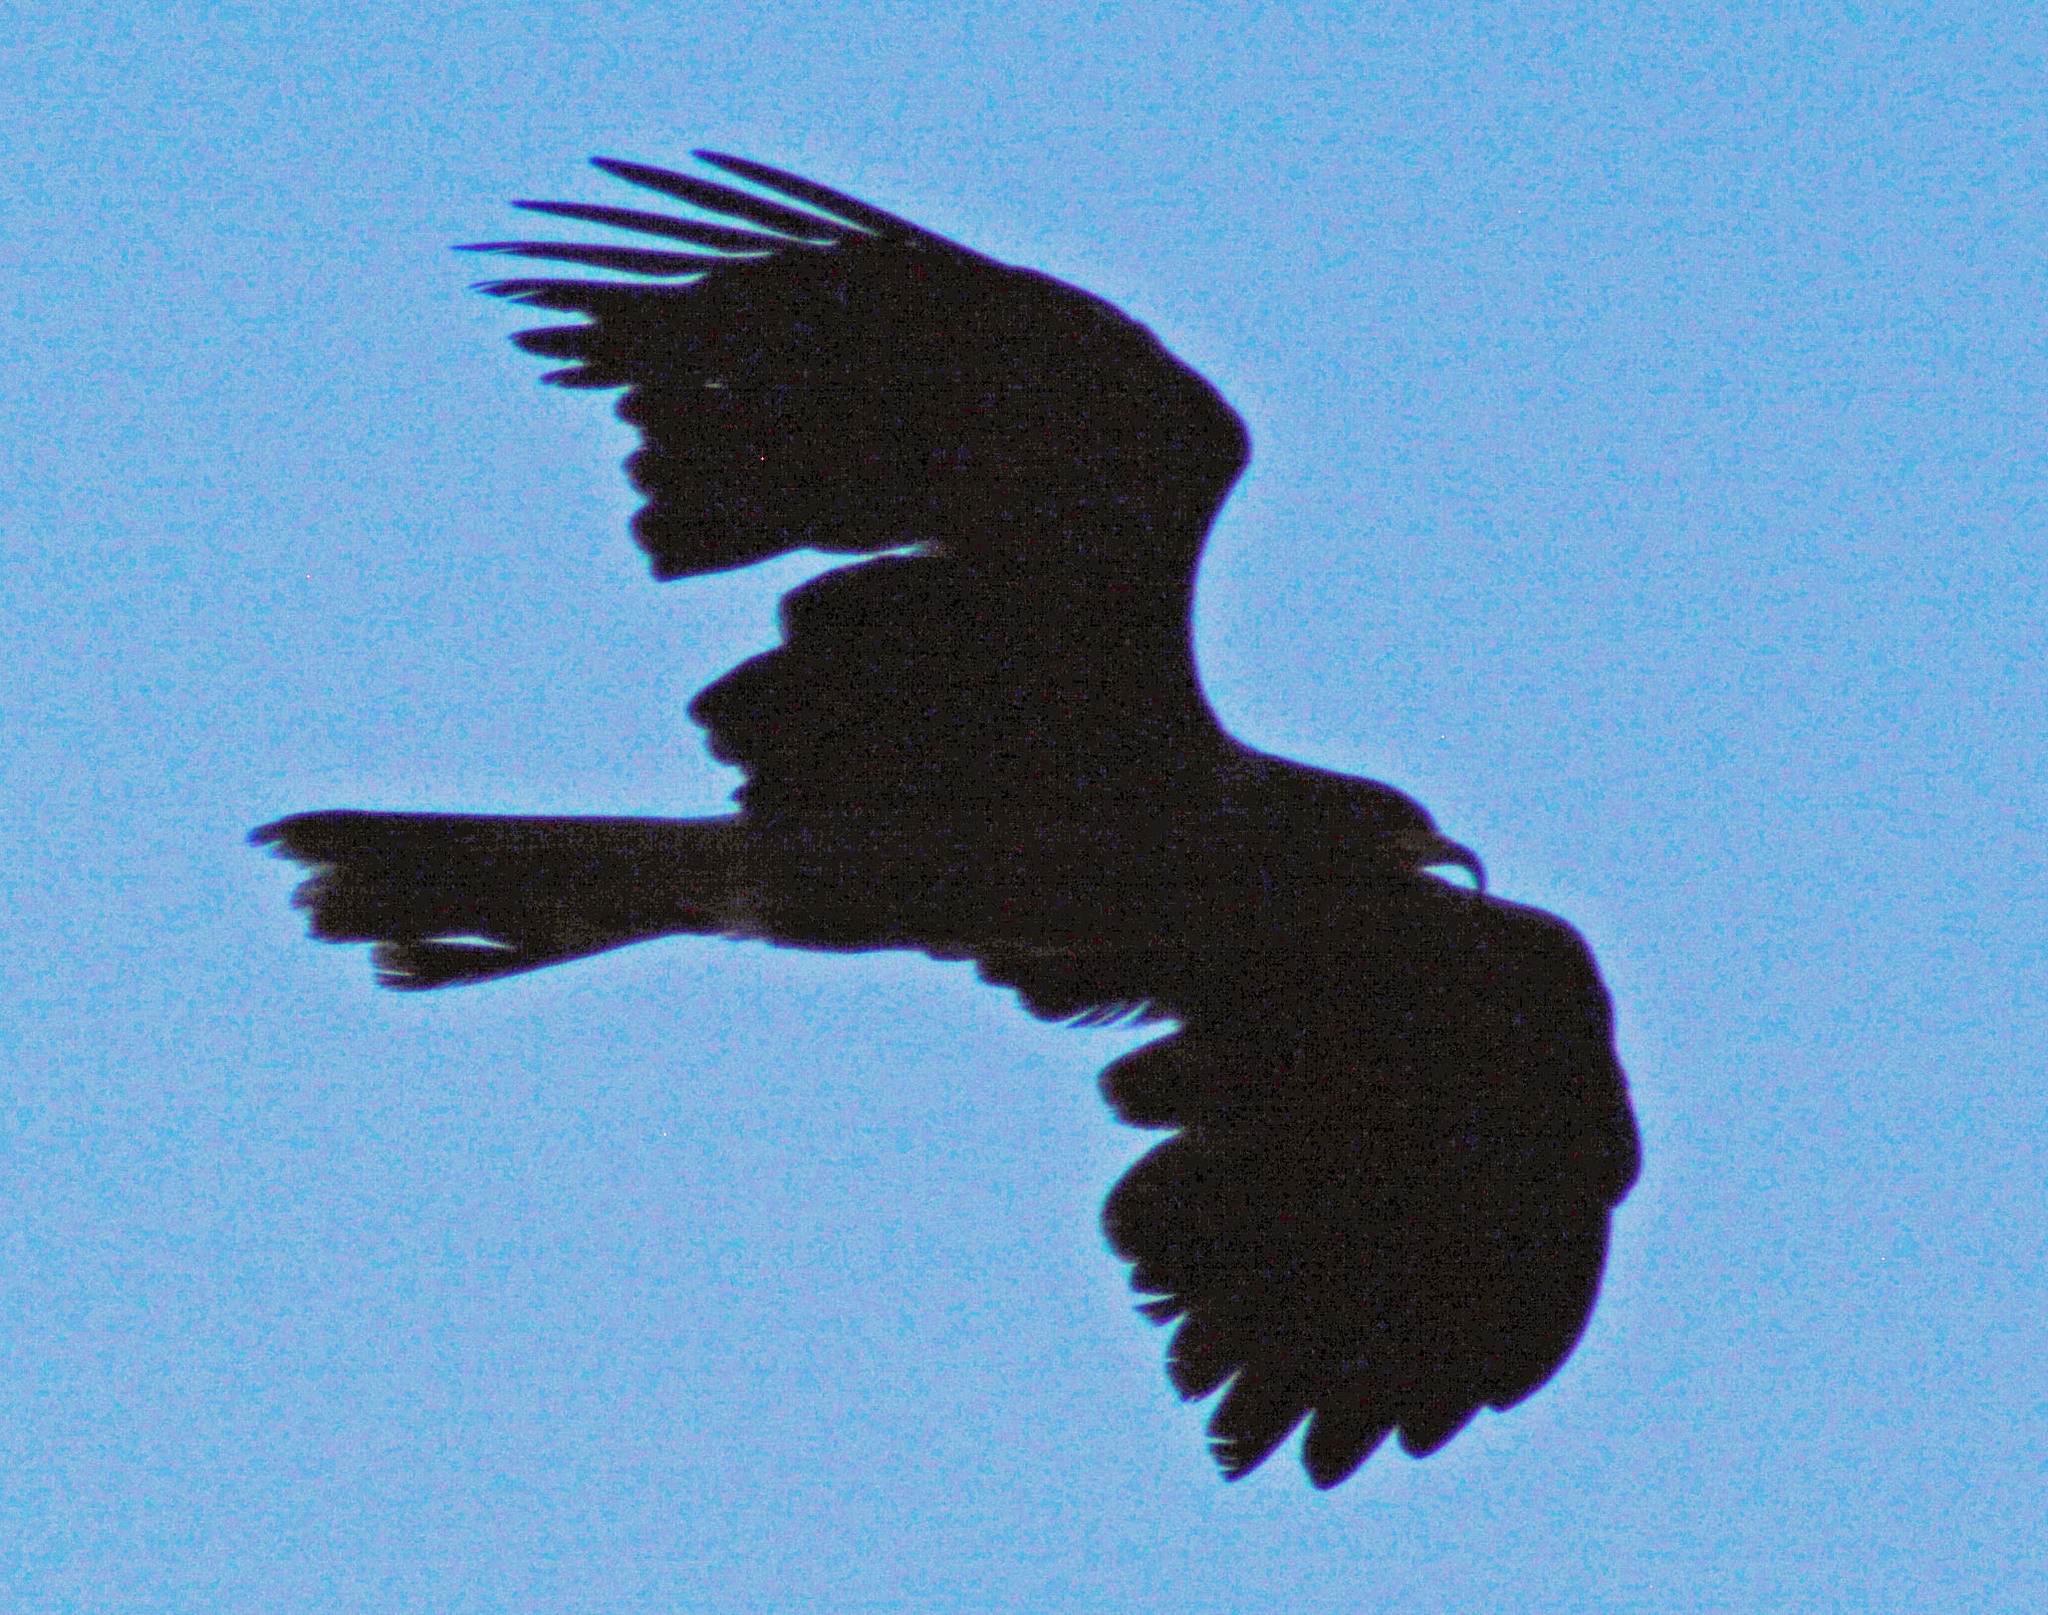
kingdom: Animalia
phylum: Chordata
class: Aves
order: Accipitriformes
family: Accipitridae
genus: Rostrhamus
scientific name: Rostrhamus sociabilis
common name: Snail kite
